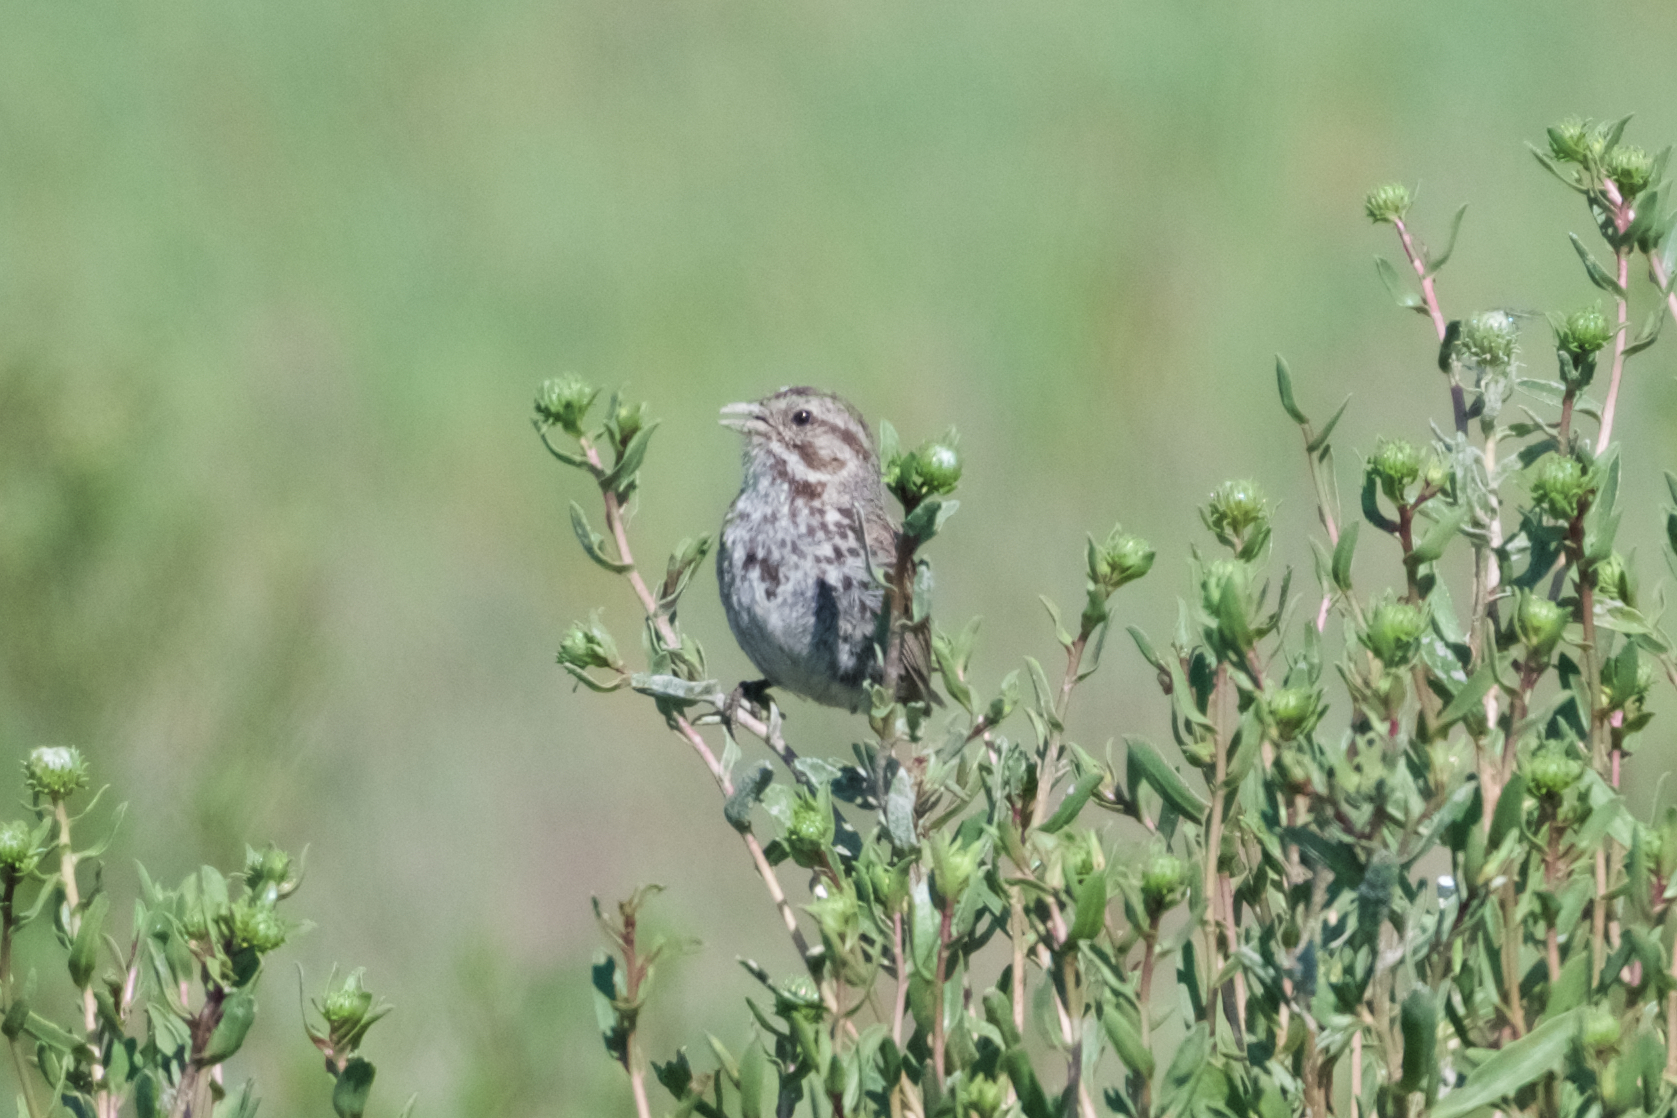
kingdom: Animalia
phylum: Chordata
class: Aves
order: Passeriformes
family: Passerellidae
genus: Melospiza
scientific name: Melospiza melodia
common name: Song sparrow
